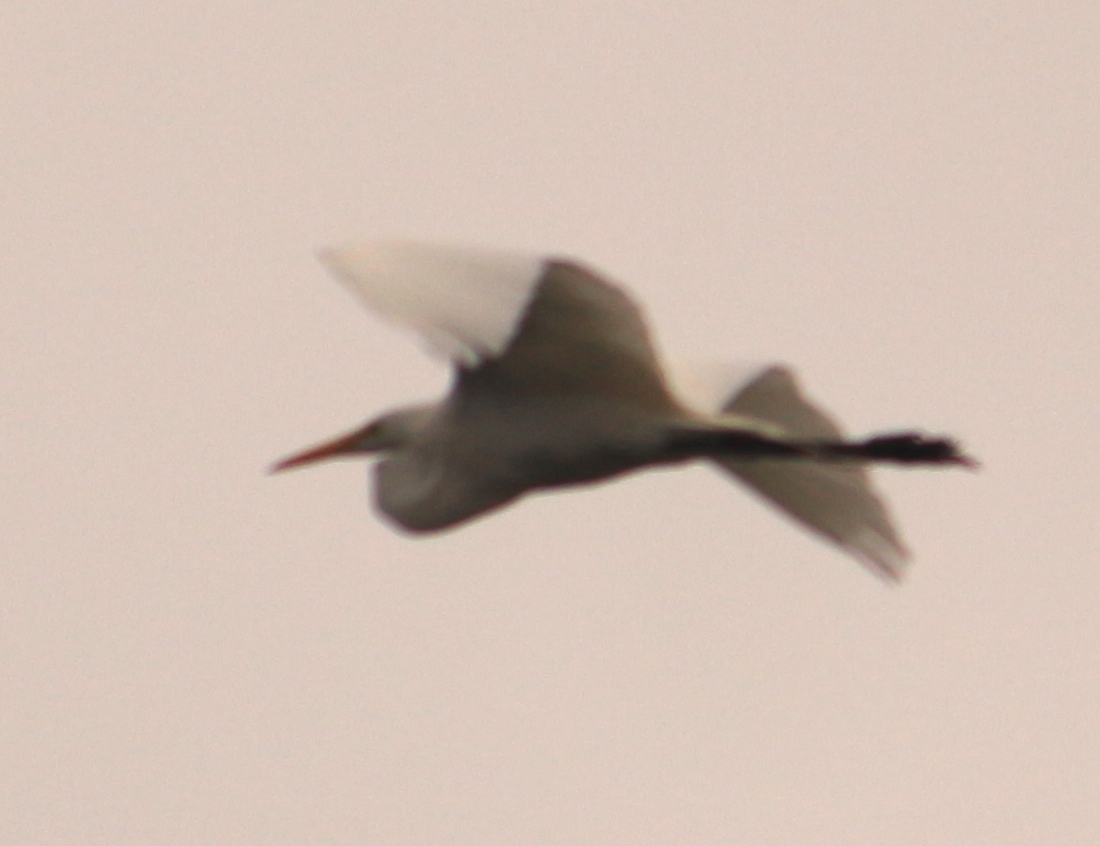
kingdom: Animalia
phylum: Chordata
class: Aves
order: Pelecaniformes
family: Ardeidae
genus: Ardea
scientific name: Ardea alba
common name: Great egret
